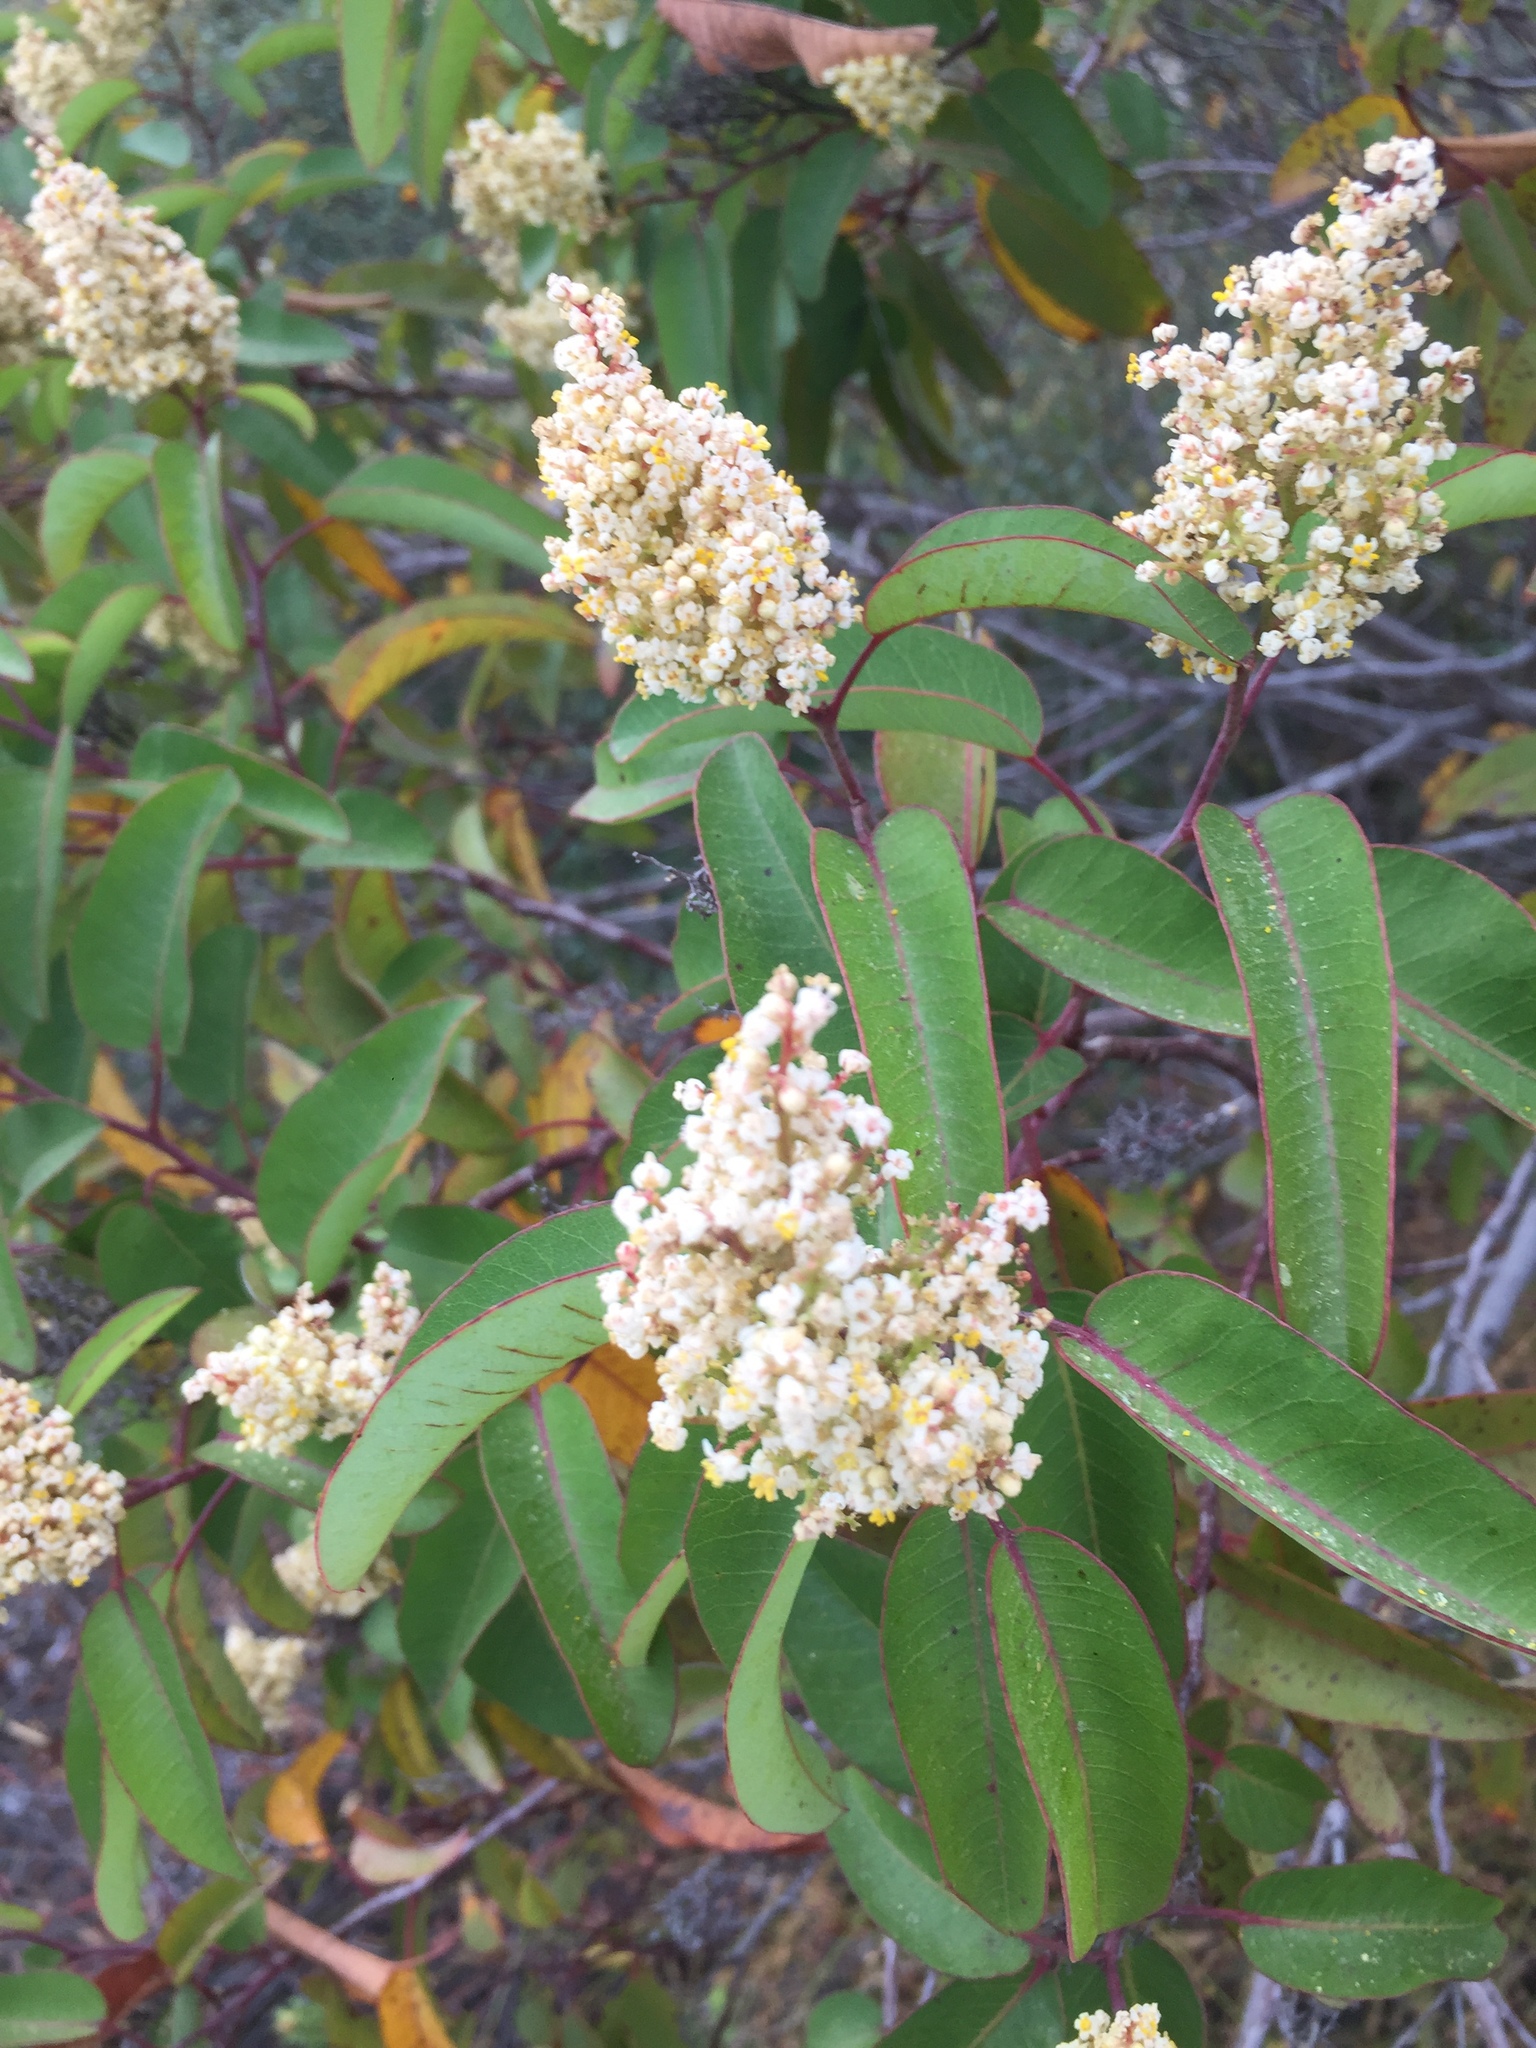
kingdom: Plantae
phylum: Tracheophyta
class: Magnoliopsida
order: Sapindales
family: Anacardiaceae
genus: Malosma
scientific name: Malosma laurina
